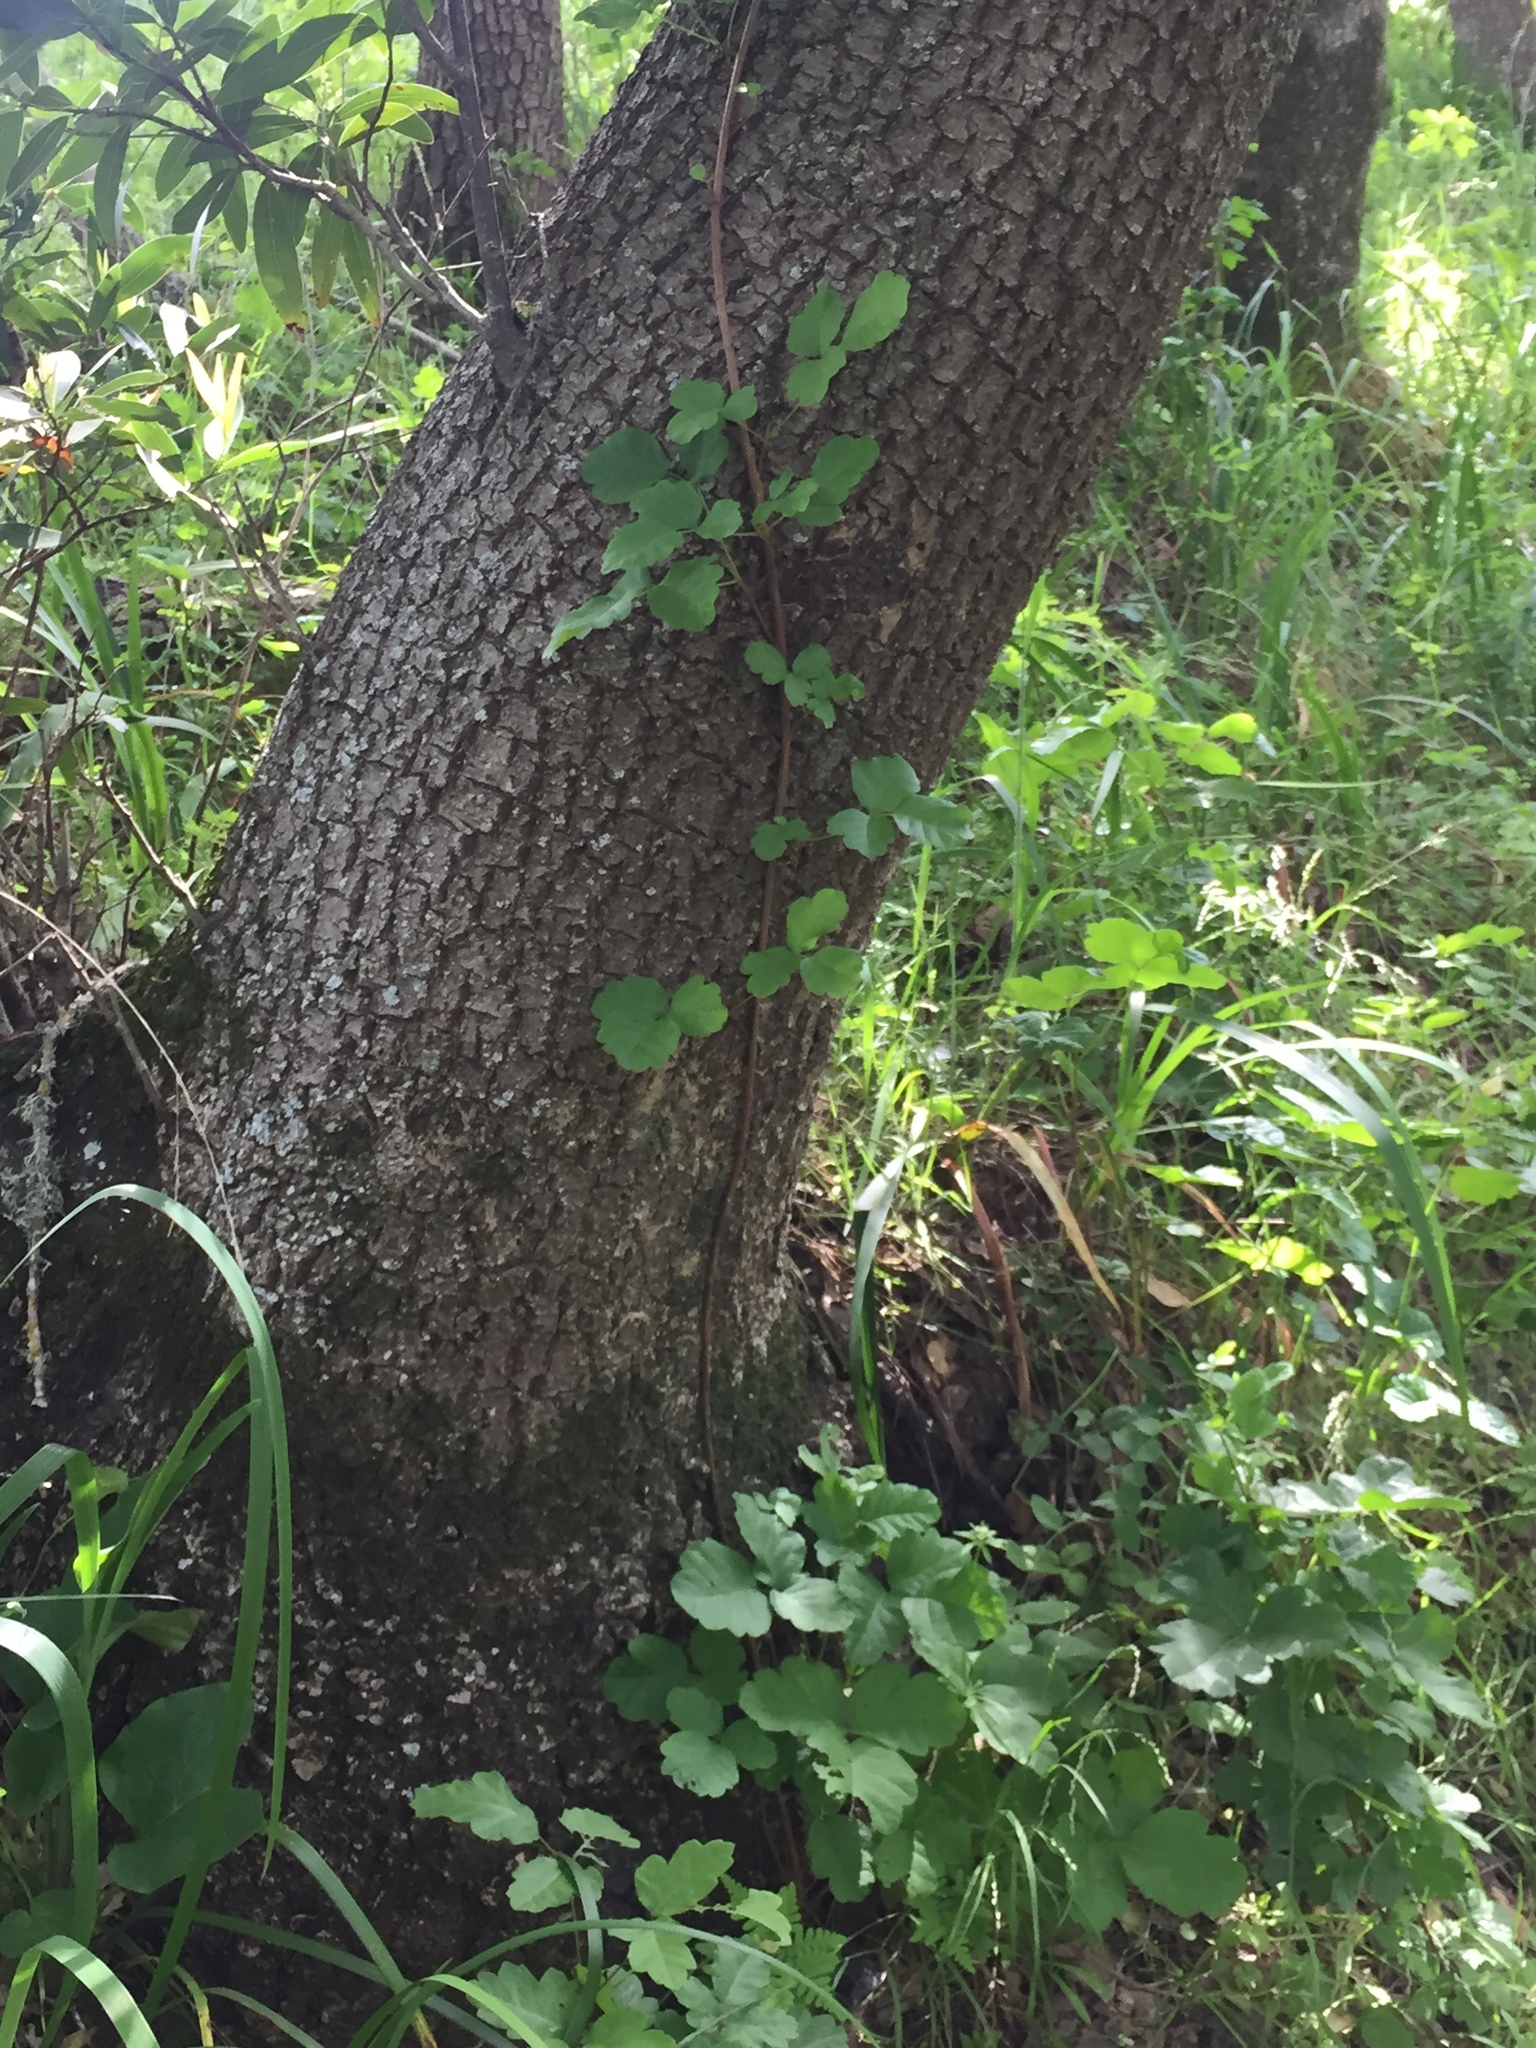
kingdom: Plantae
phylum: Tracheophyta
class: Magnoliopsida
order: Sapindales
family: Anacardiaceae
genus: Toxicodendron
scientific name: Toxicodendron diversilobum
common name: Pacific poison-oak
